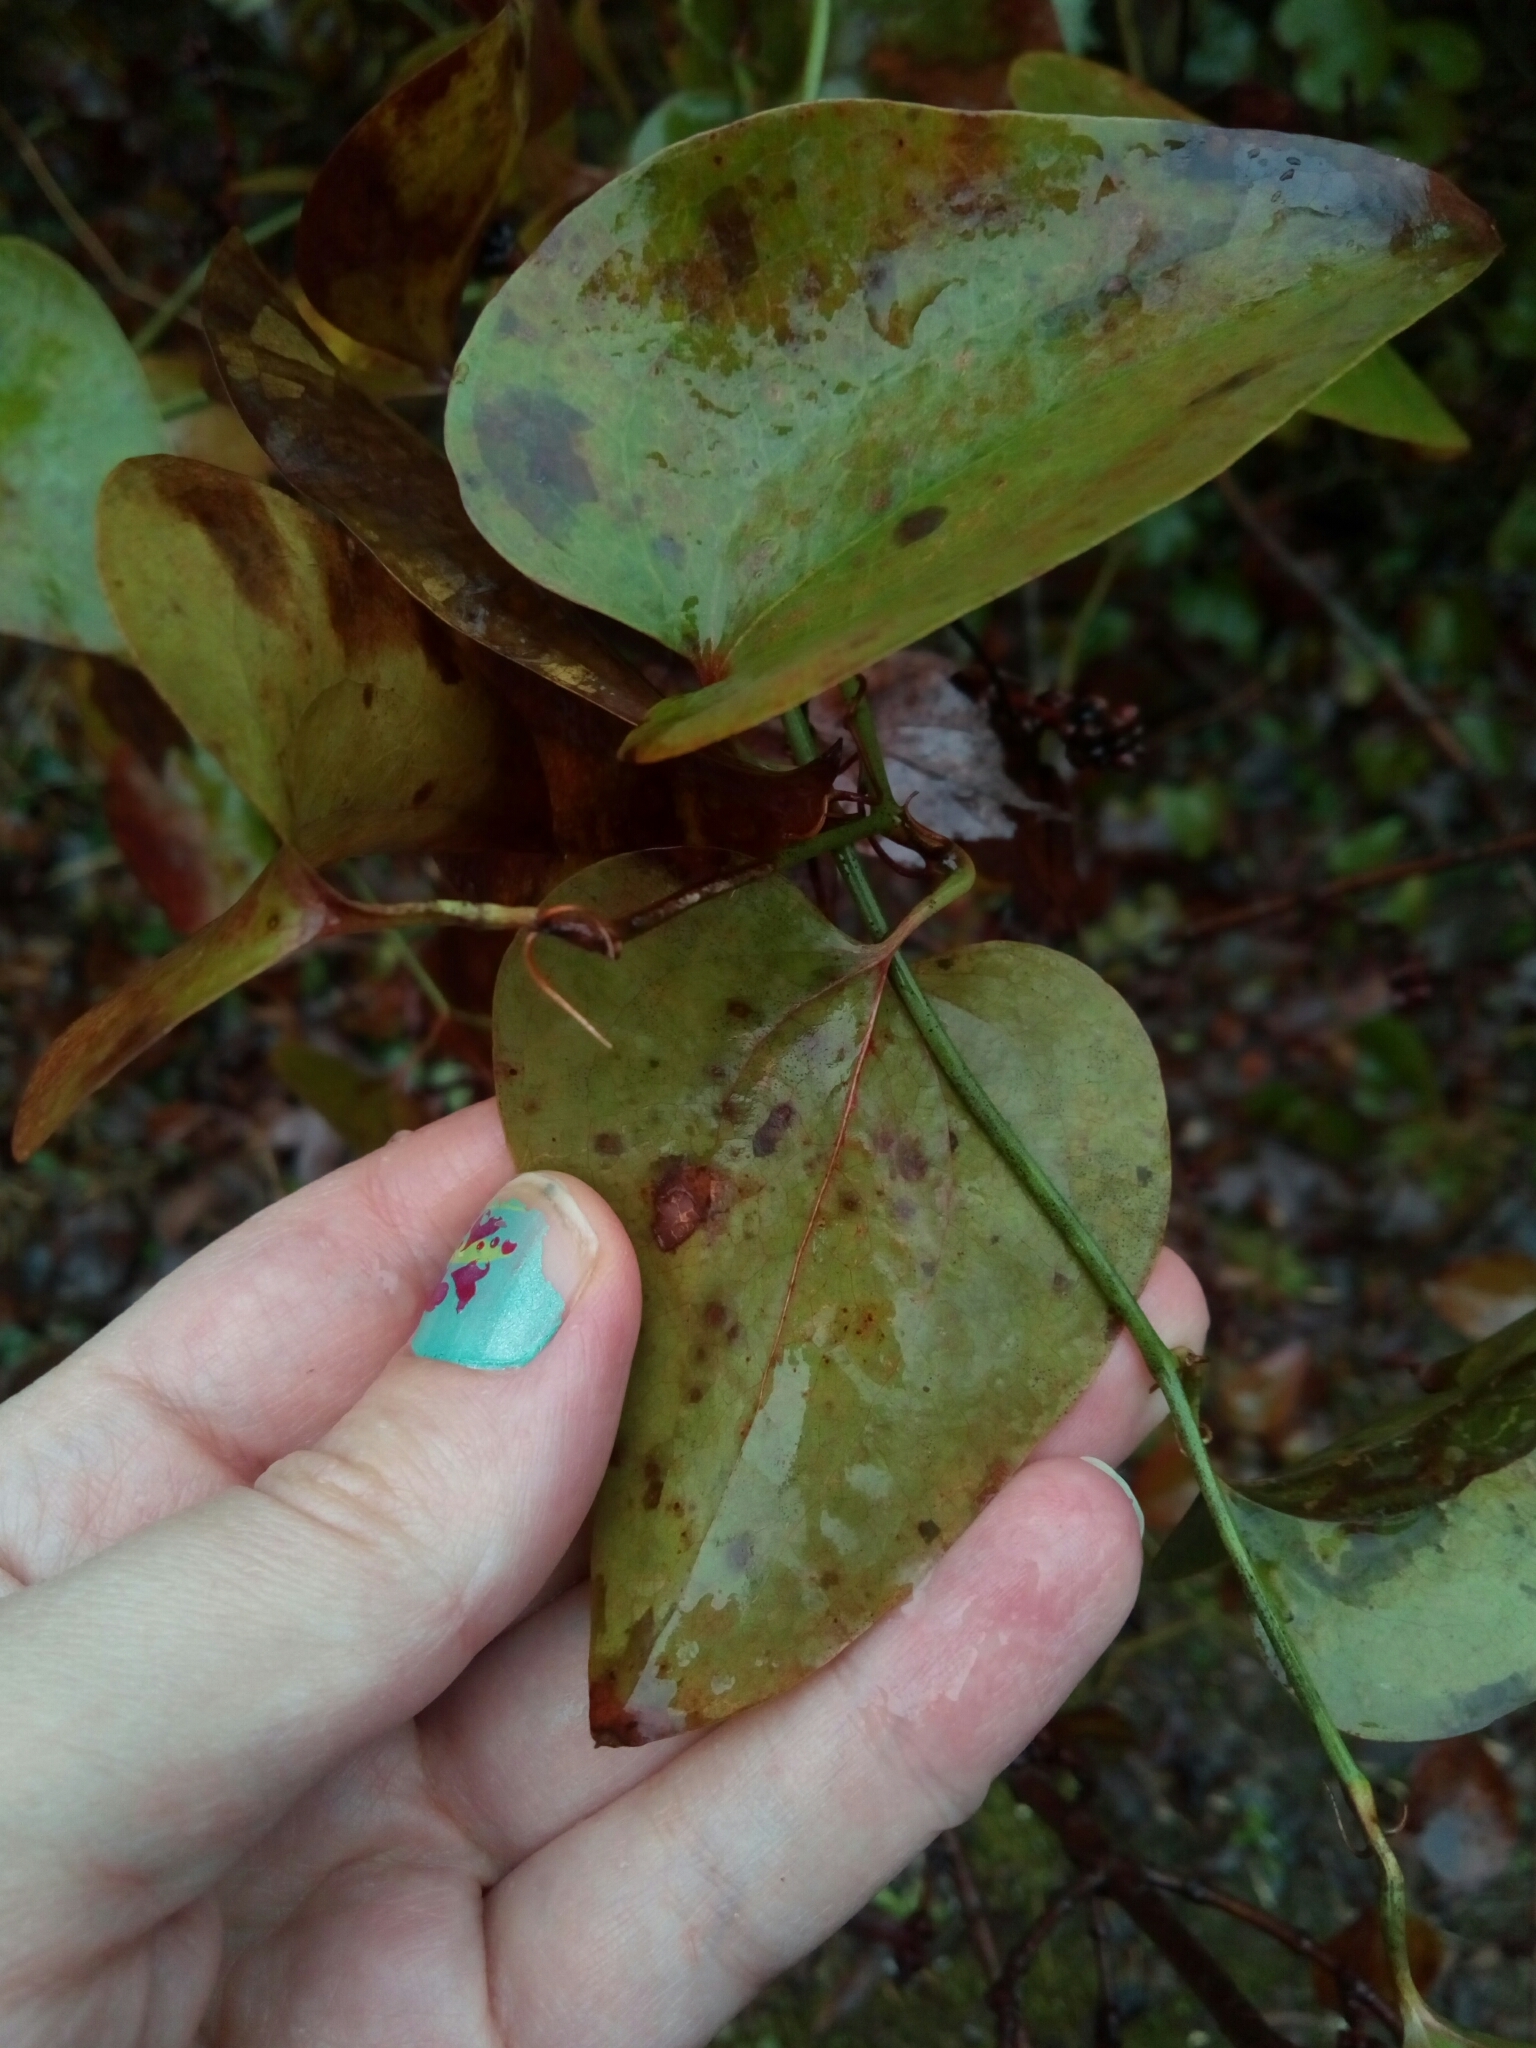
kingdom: Plantae
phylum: Tracheophyta
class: Liliopsida
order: Liliales
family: Smilacaceae
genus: Smilax
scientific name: Smilax rotundifolia
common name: Bullbriar
